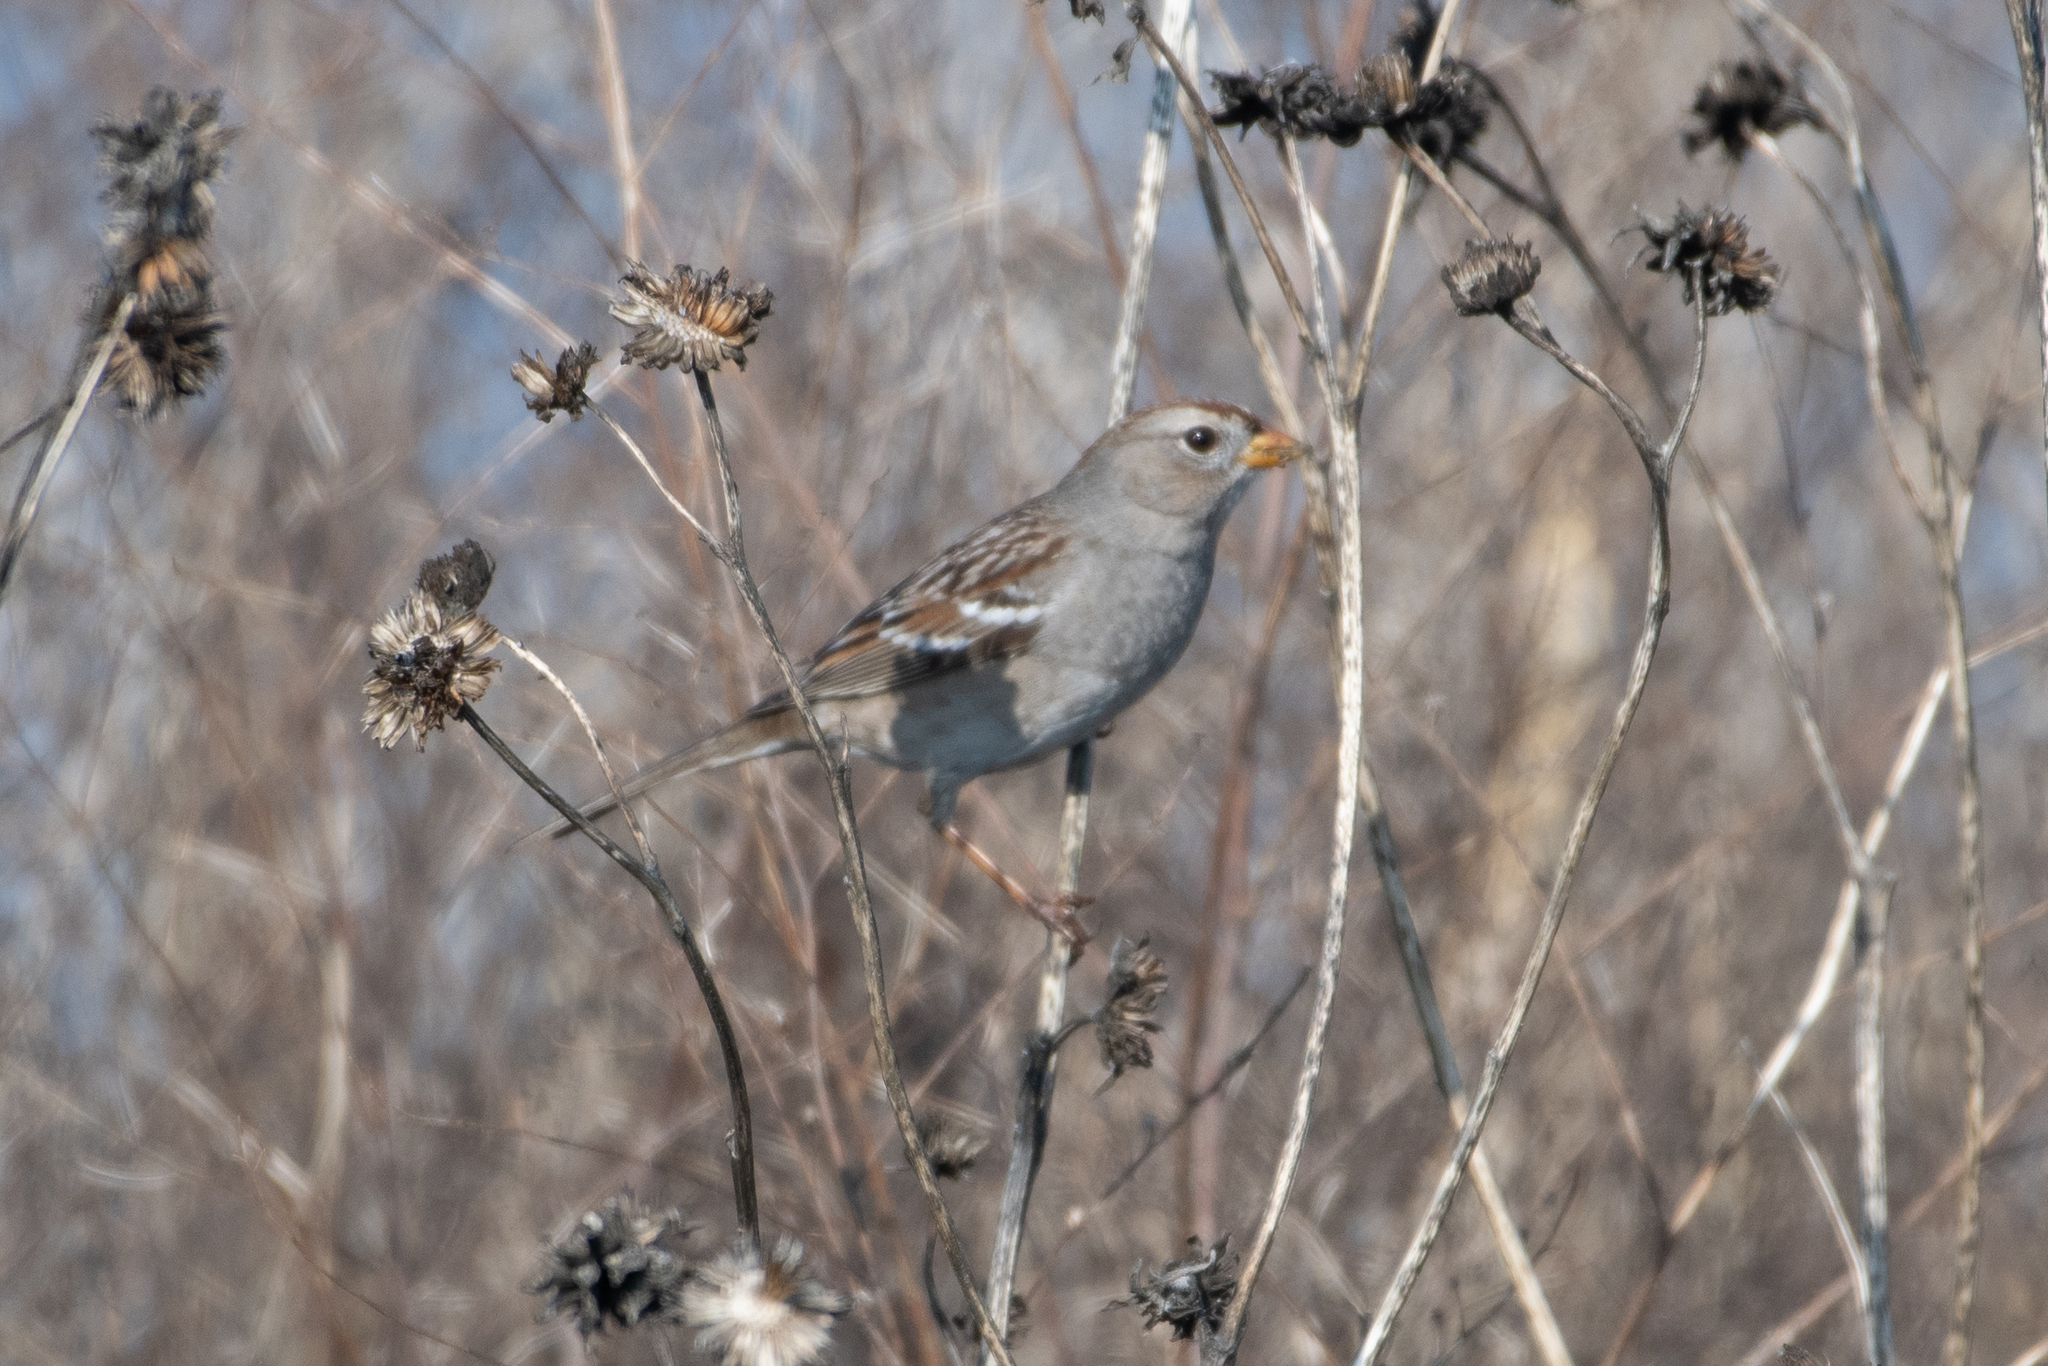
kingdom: Animalia
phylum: Chordata
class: Aves
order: Passeriformes
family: Passerellidae
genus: Zonotrichia
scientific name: Zonotrichia leucophrys
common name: White-crowned sparrow
